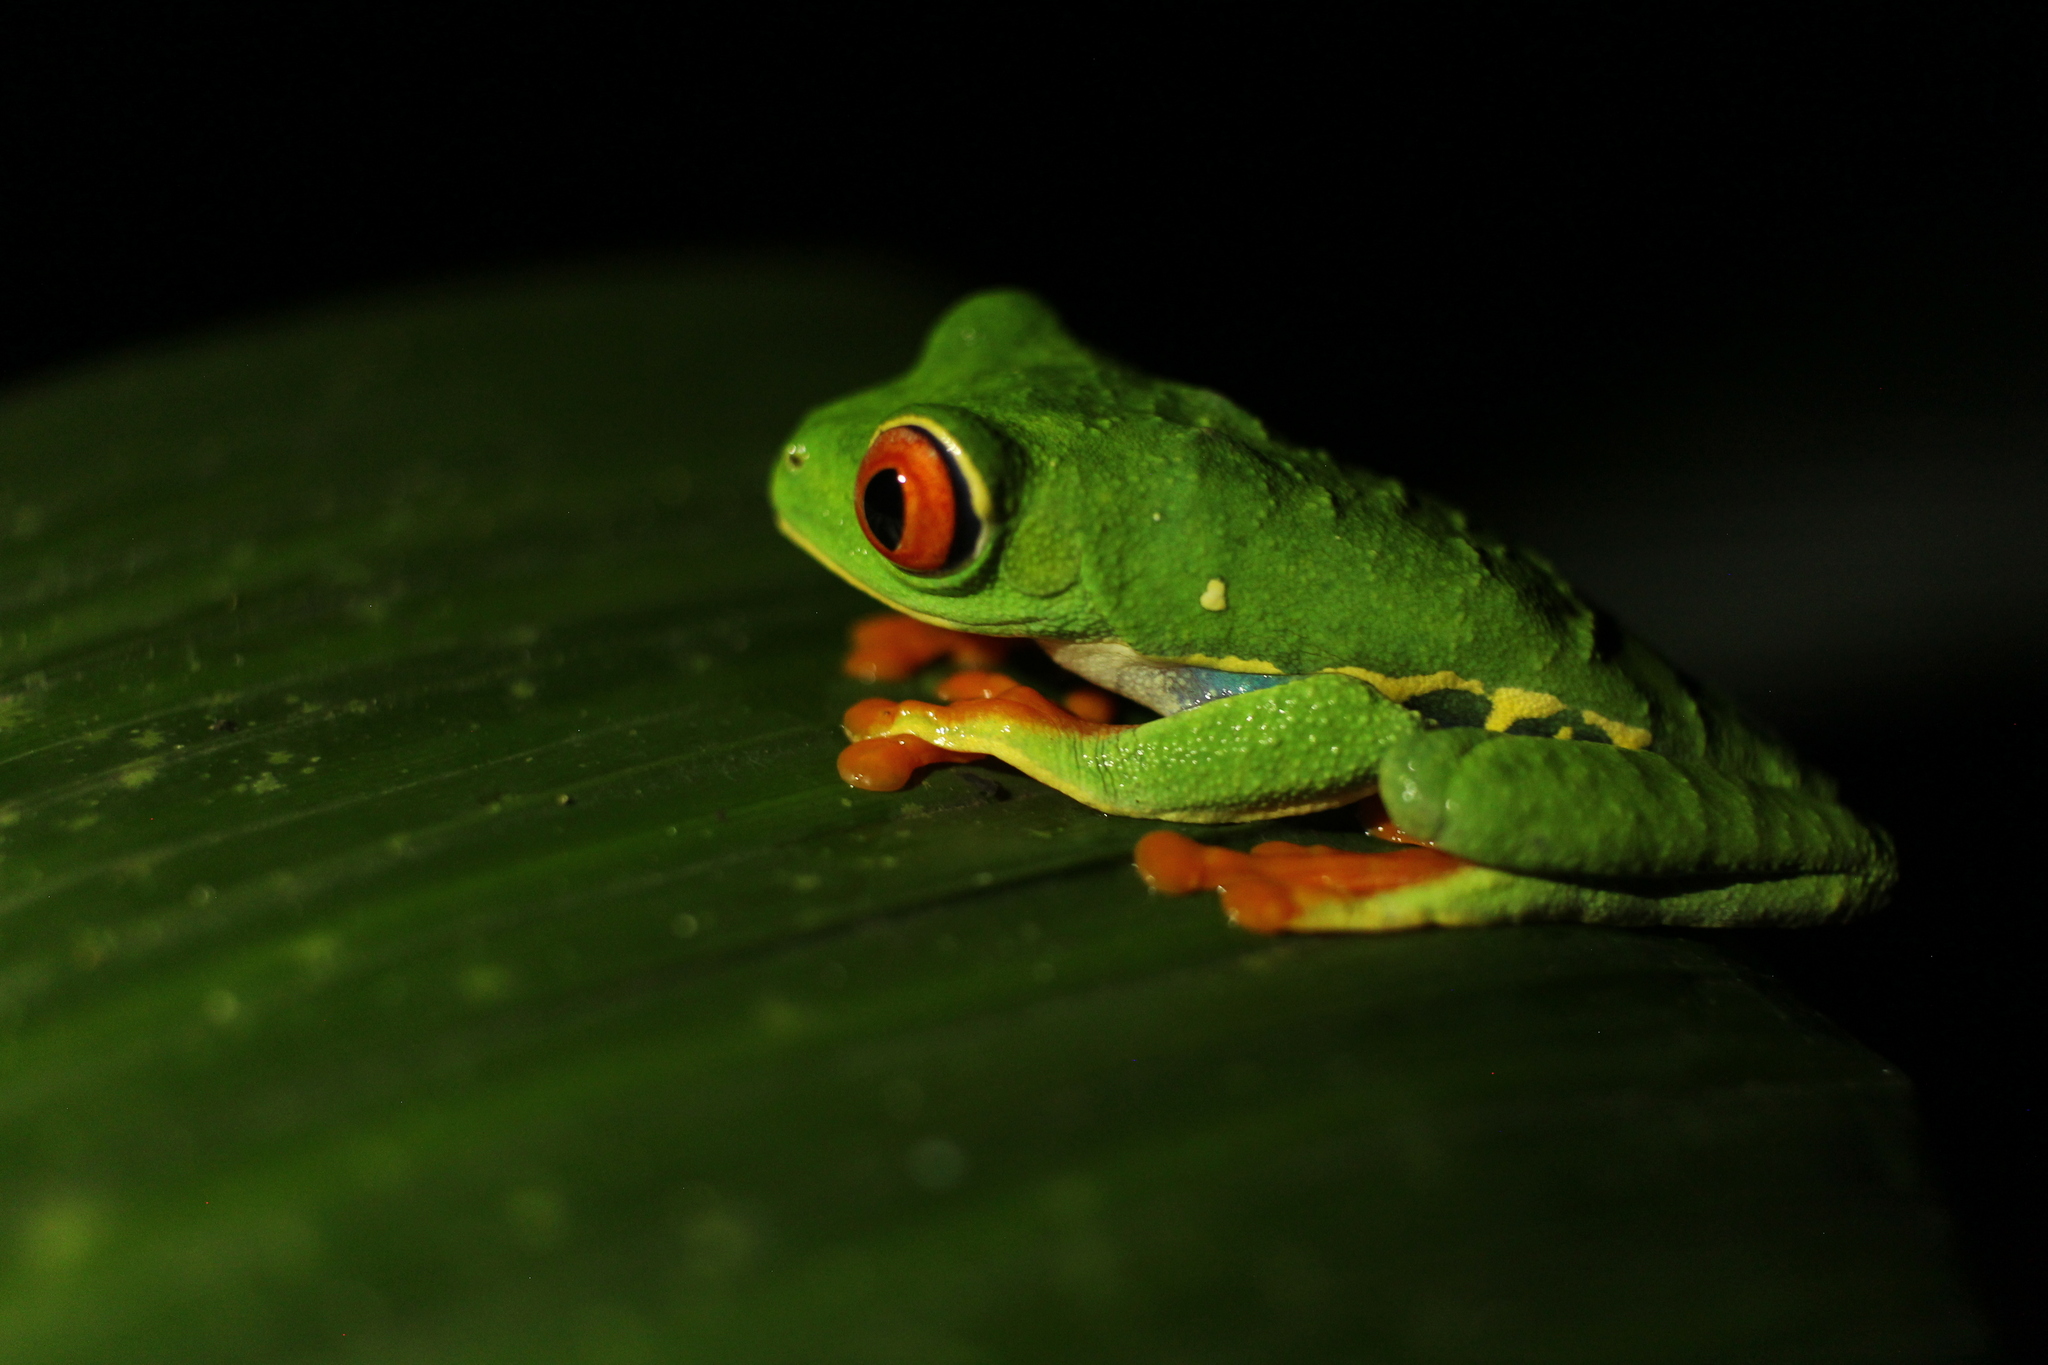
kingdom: Animalia
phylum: Chordata
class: Amphibia
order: Anura
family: Phyllomedusidae
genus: Agalychnis
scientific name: Agalychnis callidryas
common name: Red-eyed treefrog
